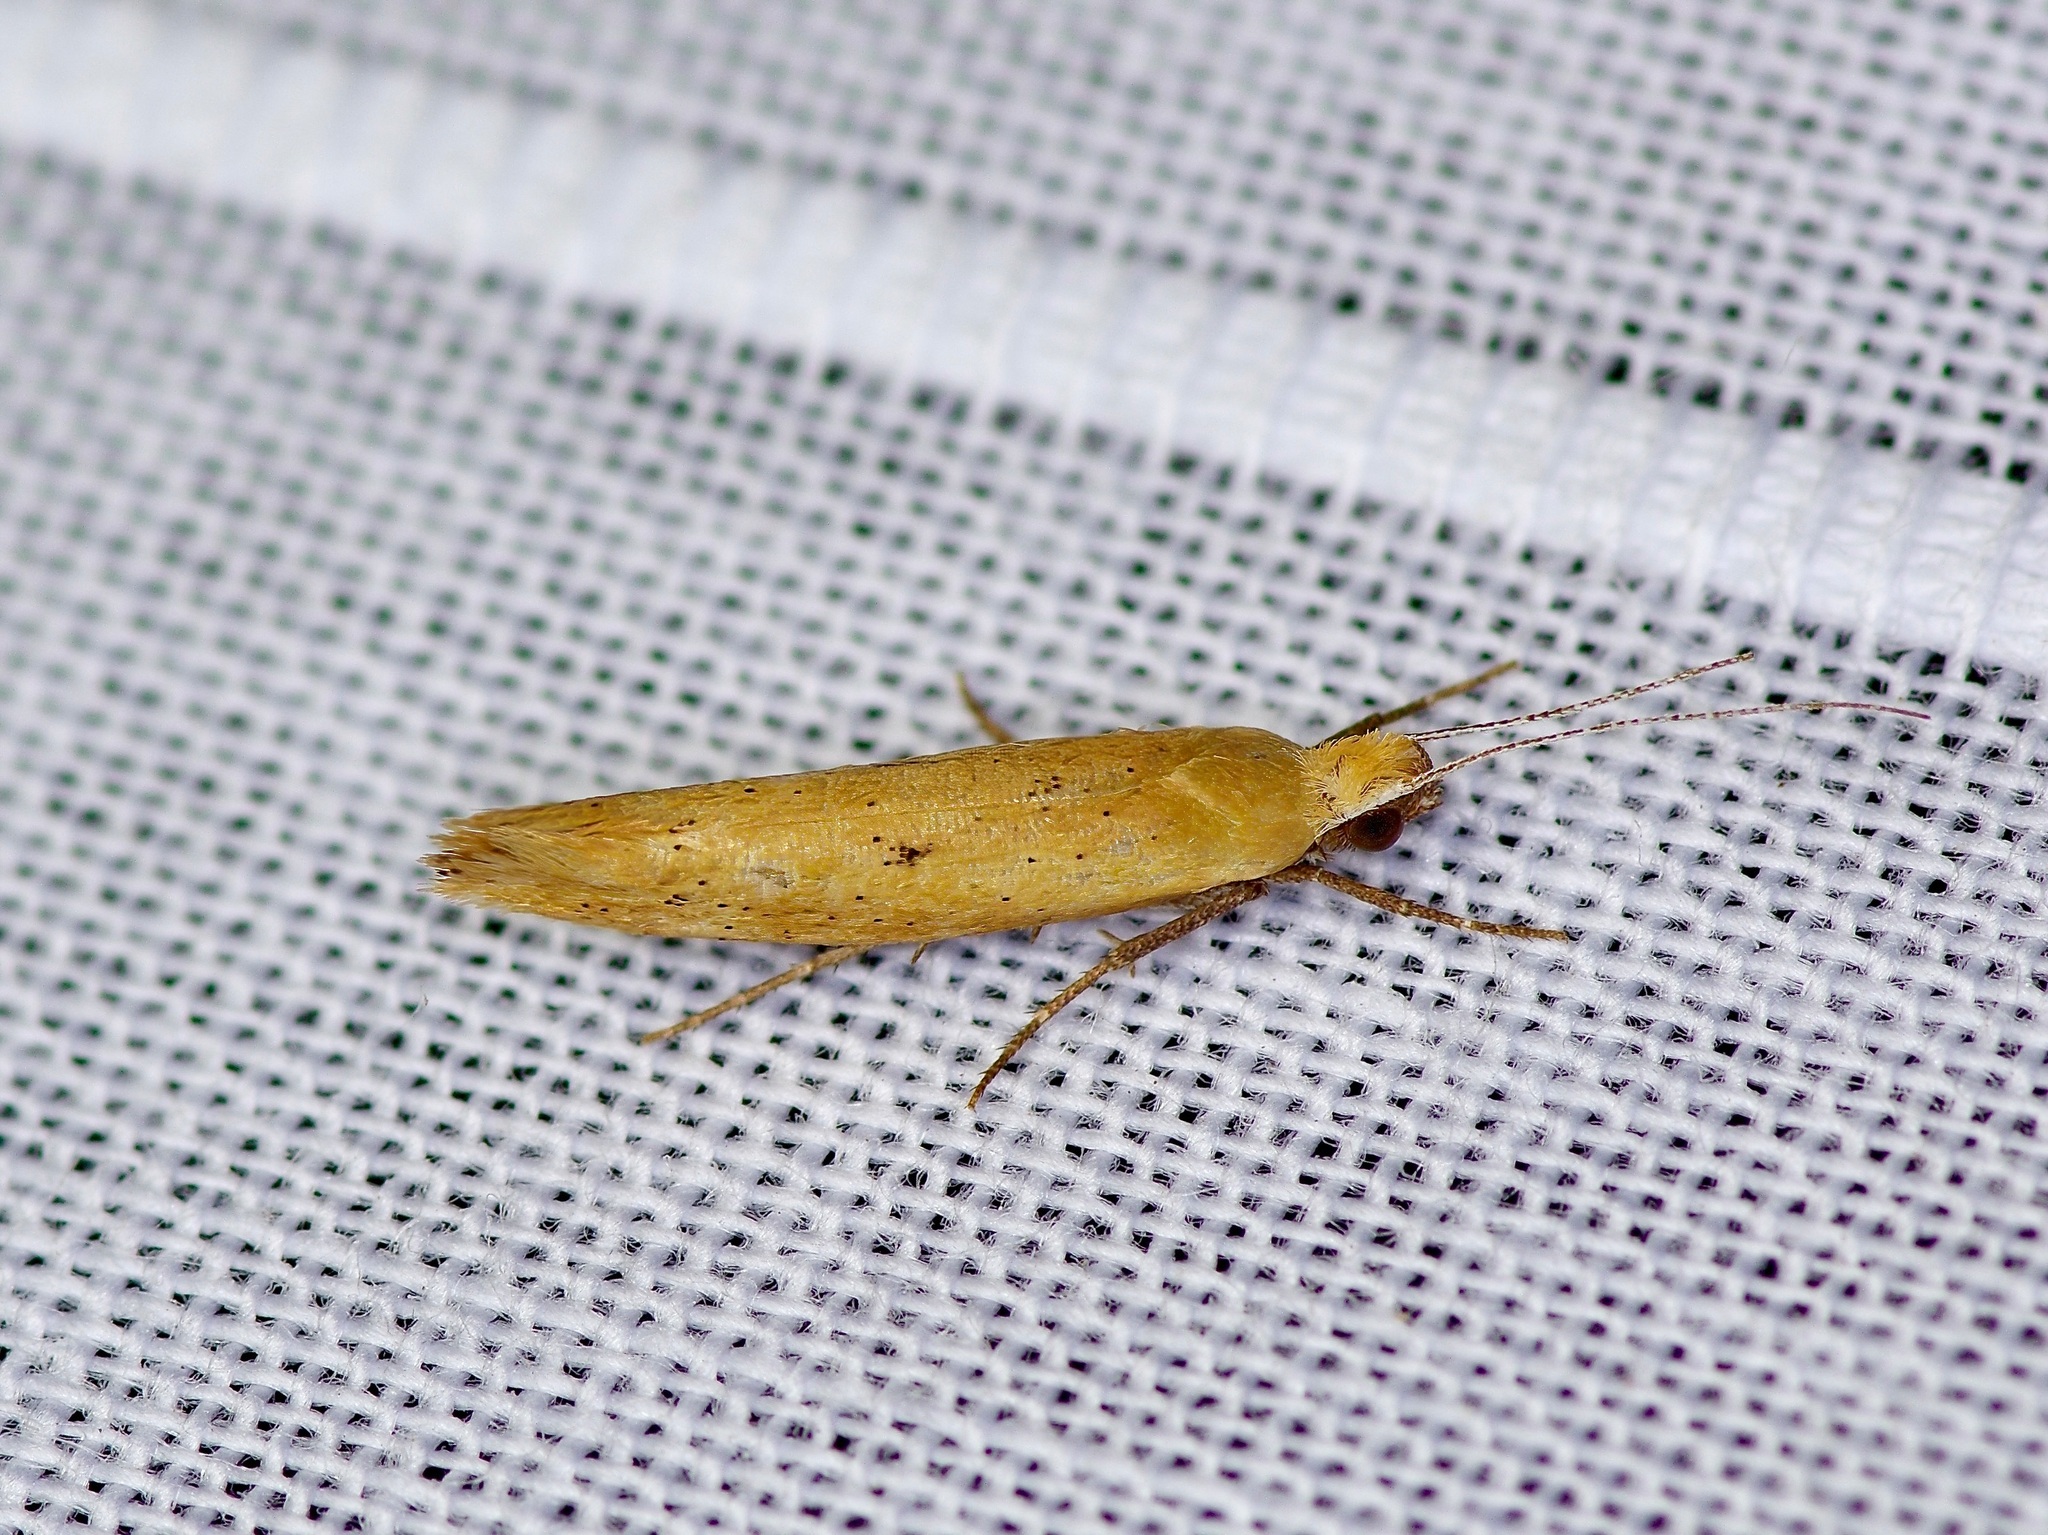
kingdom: Animalia
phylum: Arthropoda
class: Insecta
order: Lepidoptera
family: Ypsolophidae
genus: Ypsolopha
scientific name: Ypsolopha
